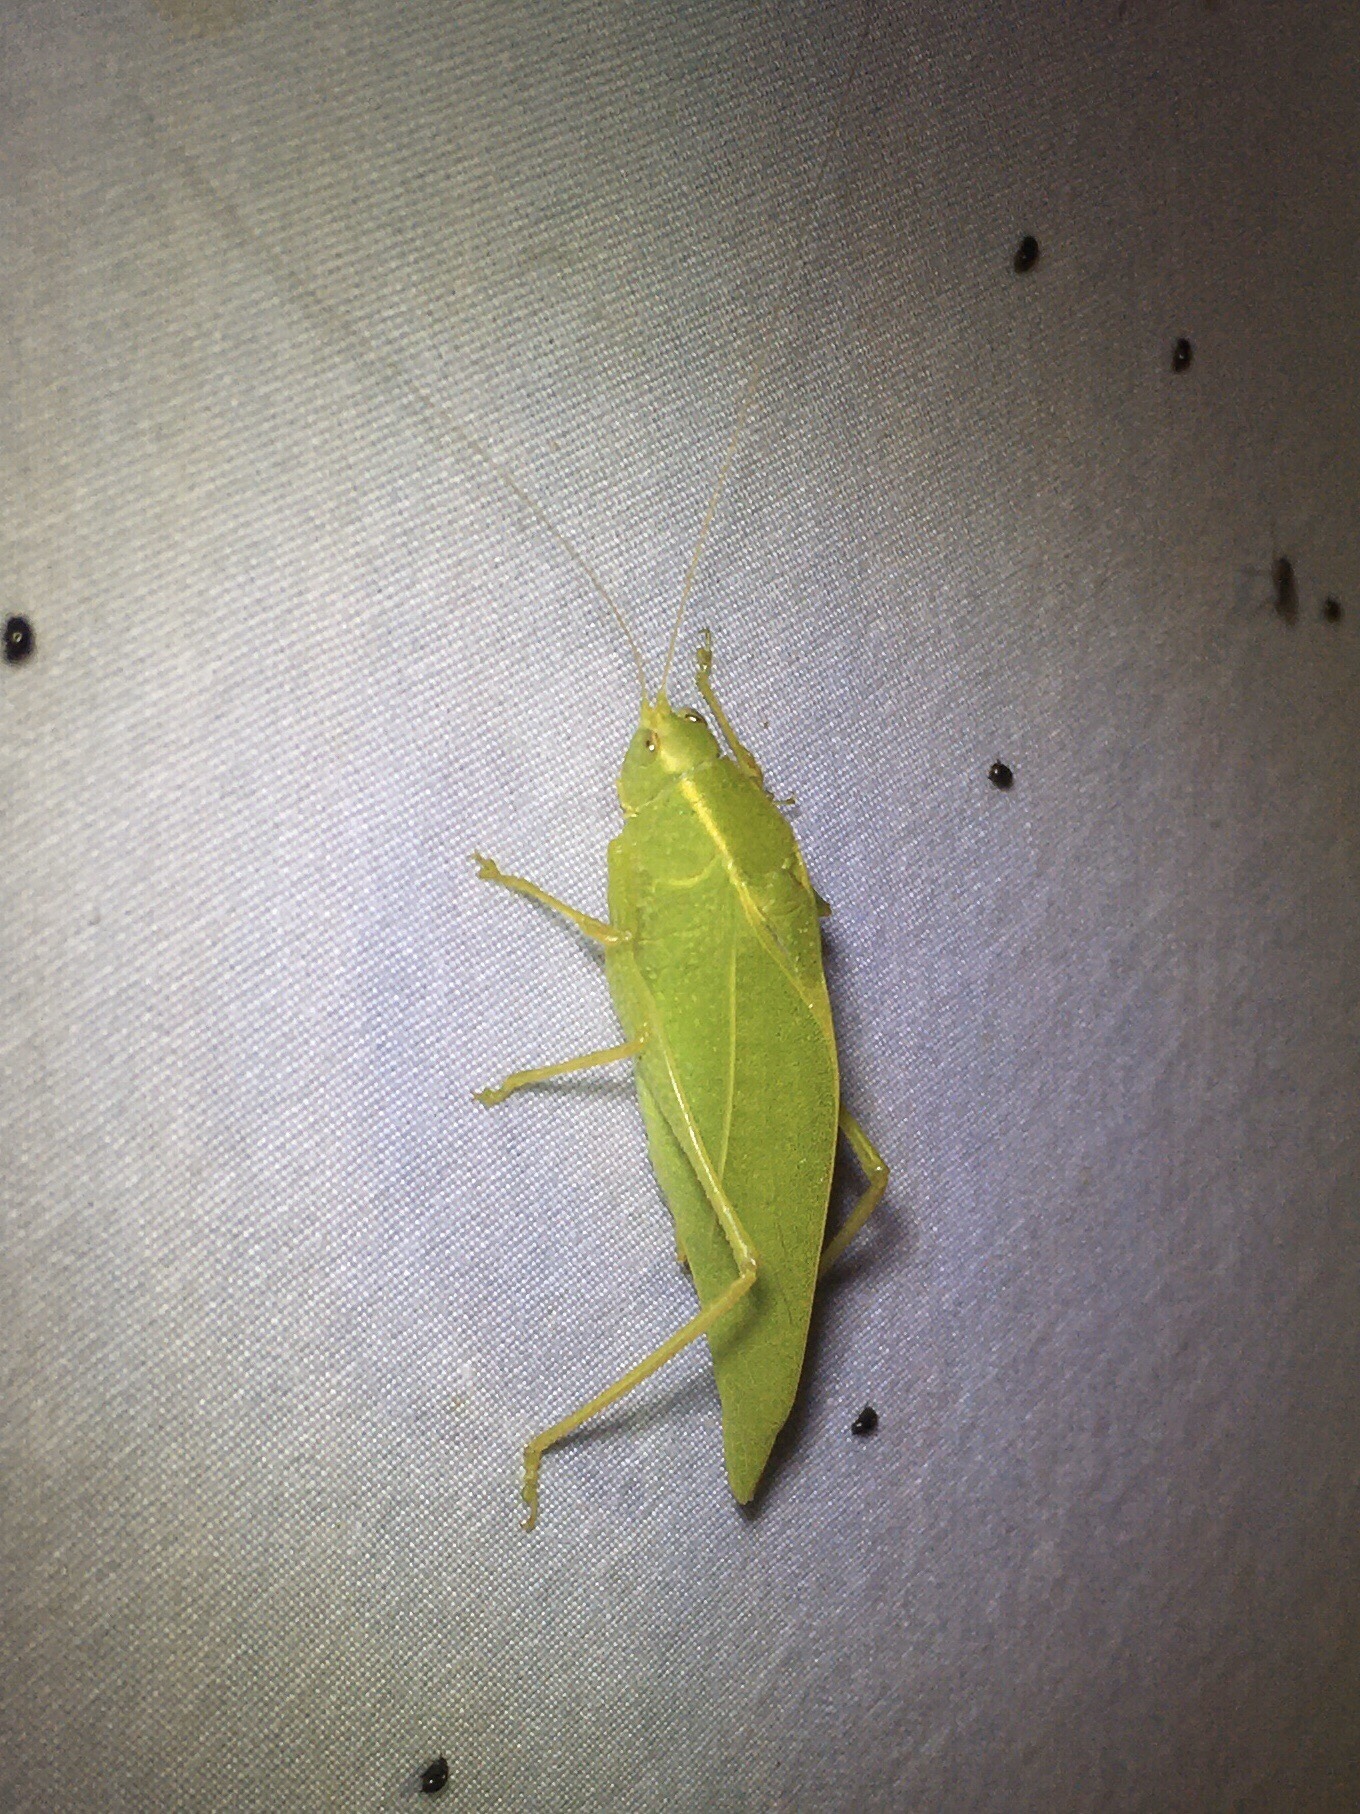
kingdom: Animalia
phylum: Arthropoda
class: Insecta
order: Orthoptera
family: Tettigoniidae
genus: Turpilia
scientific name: Turpilia rostrata
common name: Narrow-beaked katydid
